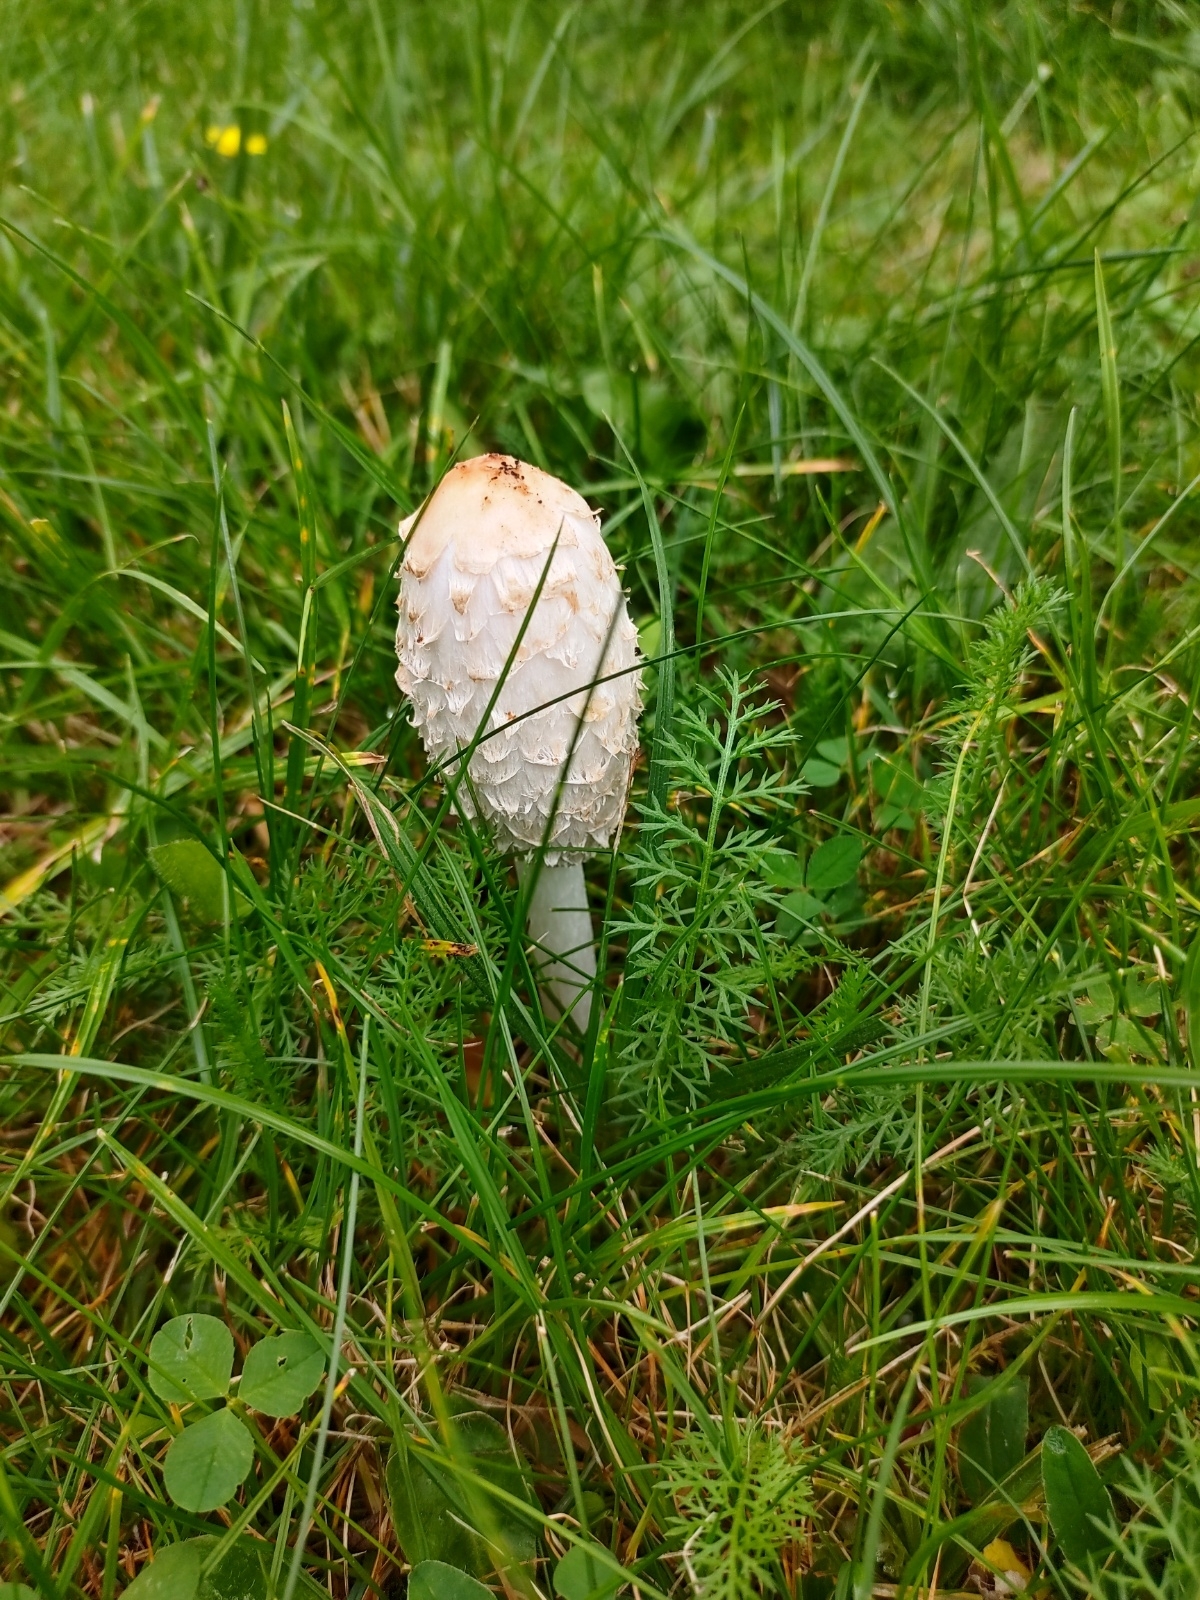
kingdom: Fungi
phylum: Basidiomycota
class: Agaricomycetes
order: Agaricales
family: Agaricaceae
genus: Coprinus
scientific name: Coprinus comatus
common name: Lawyer's wig
